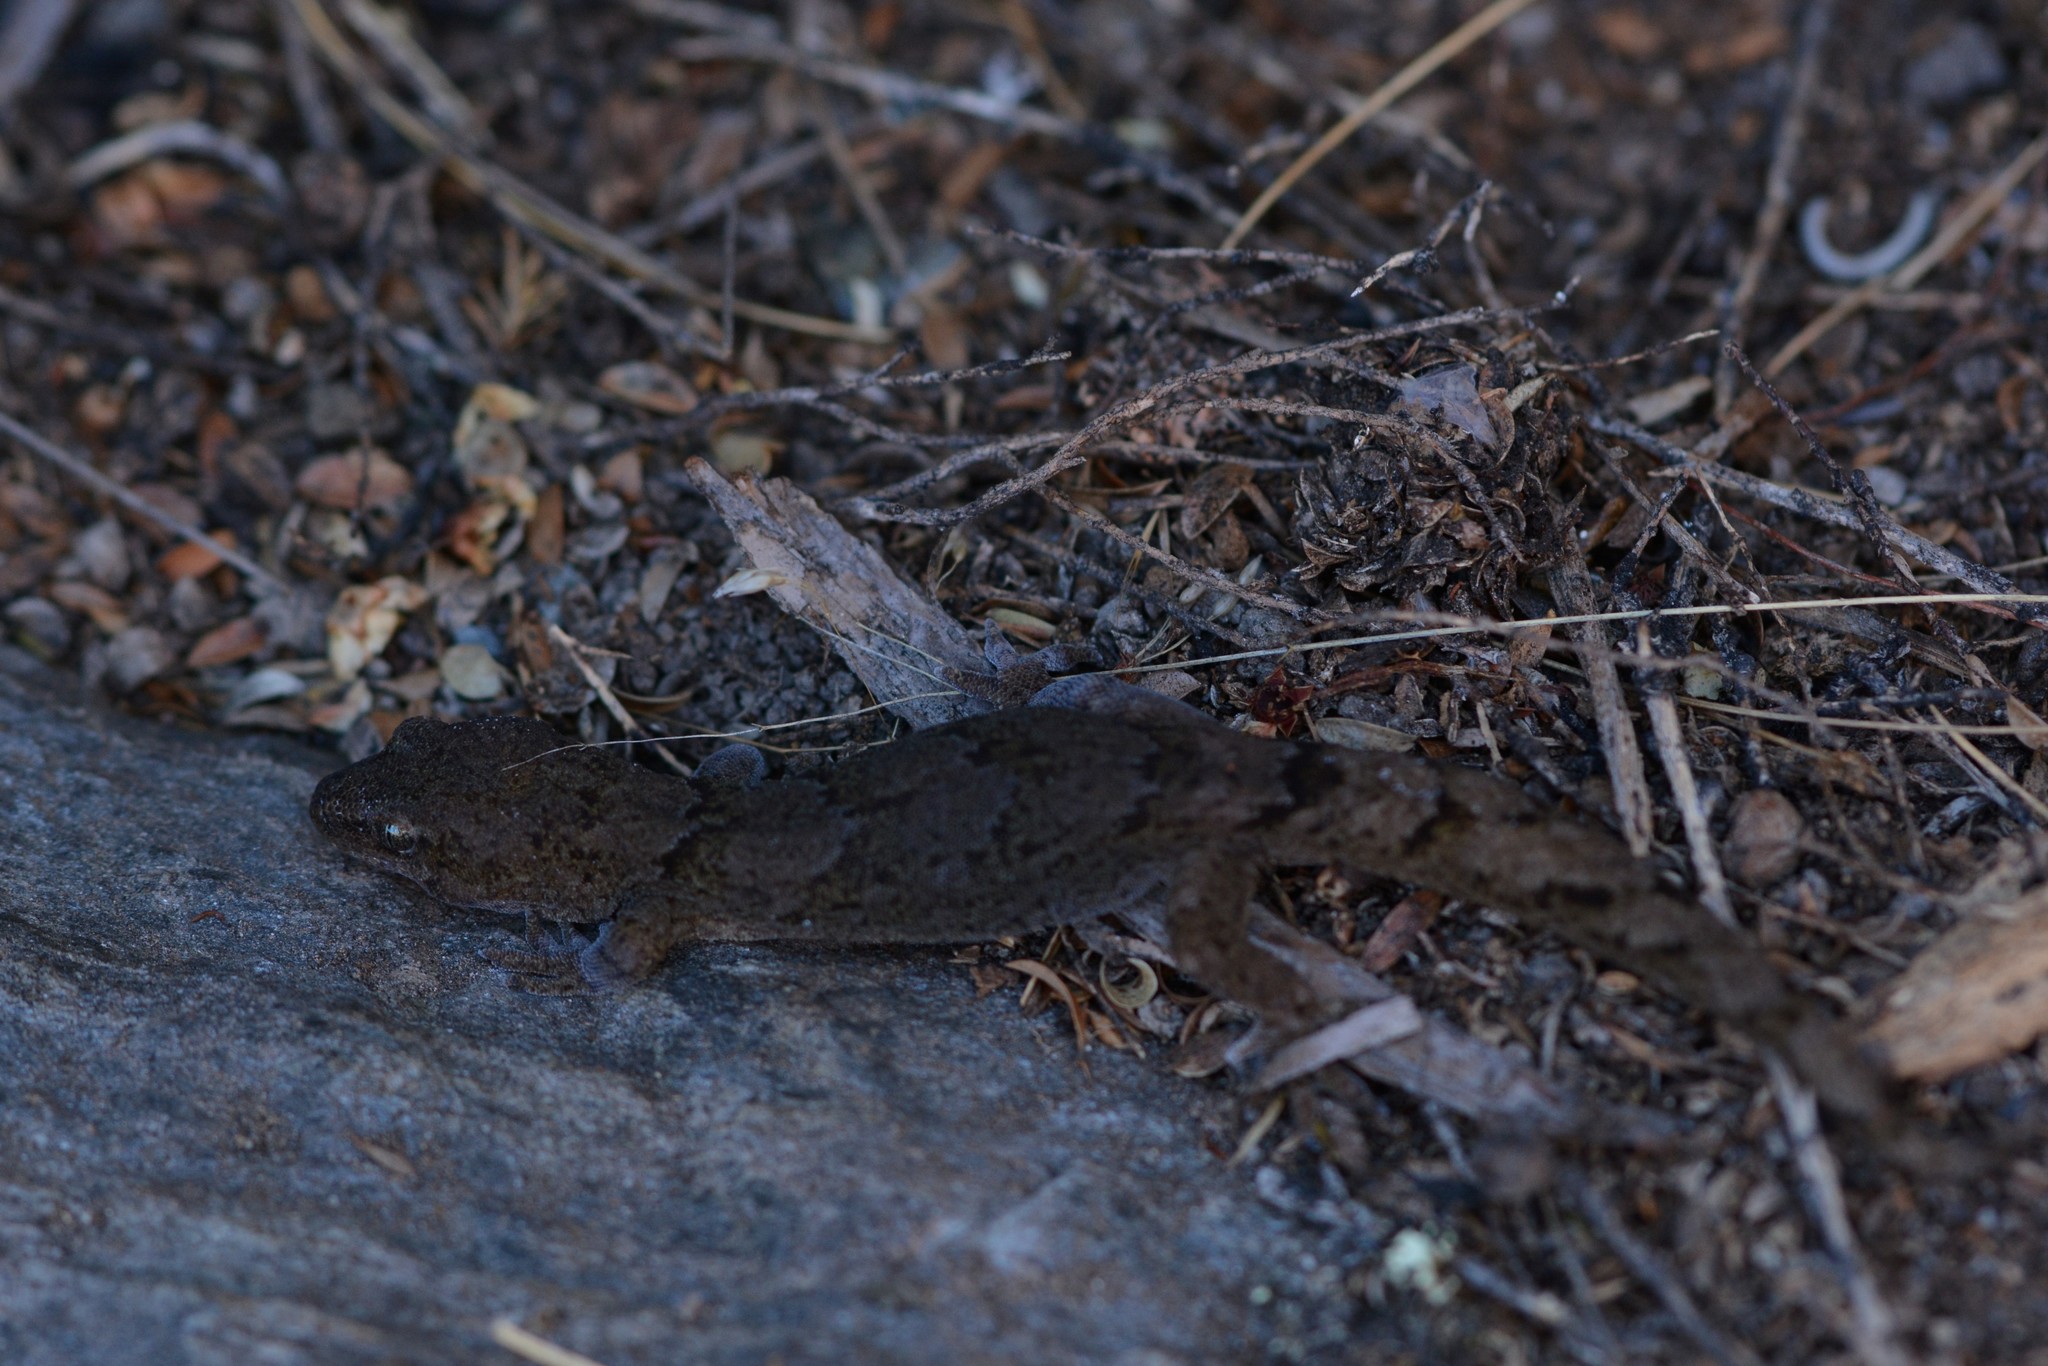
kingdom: Animalia
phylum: Chordata
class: Squamata
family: Diplodactylidae
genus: Woodworthia
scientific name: Woodworthia
